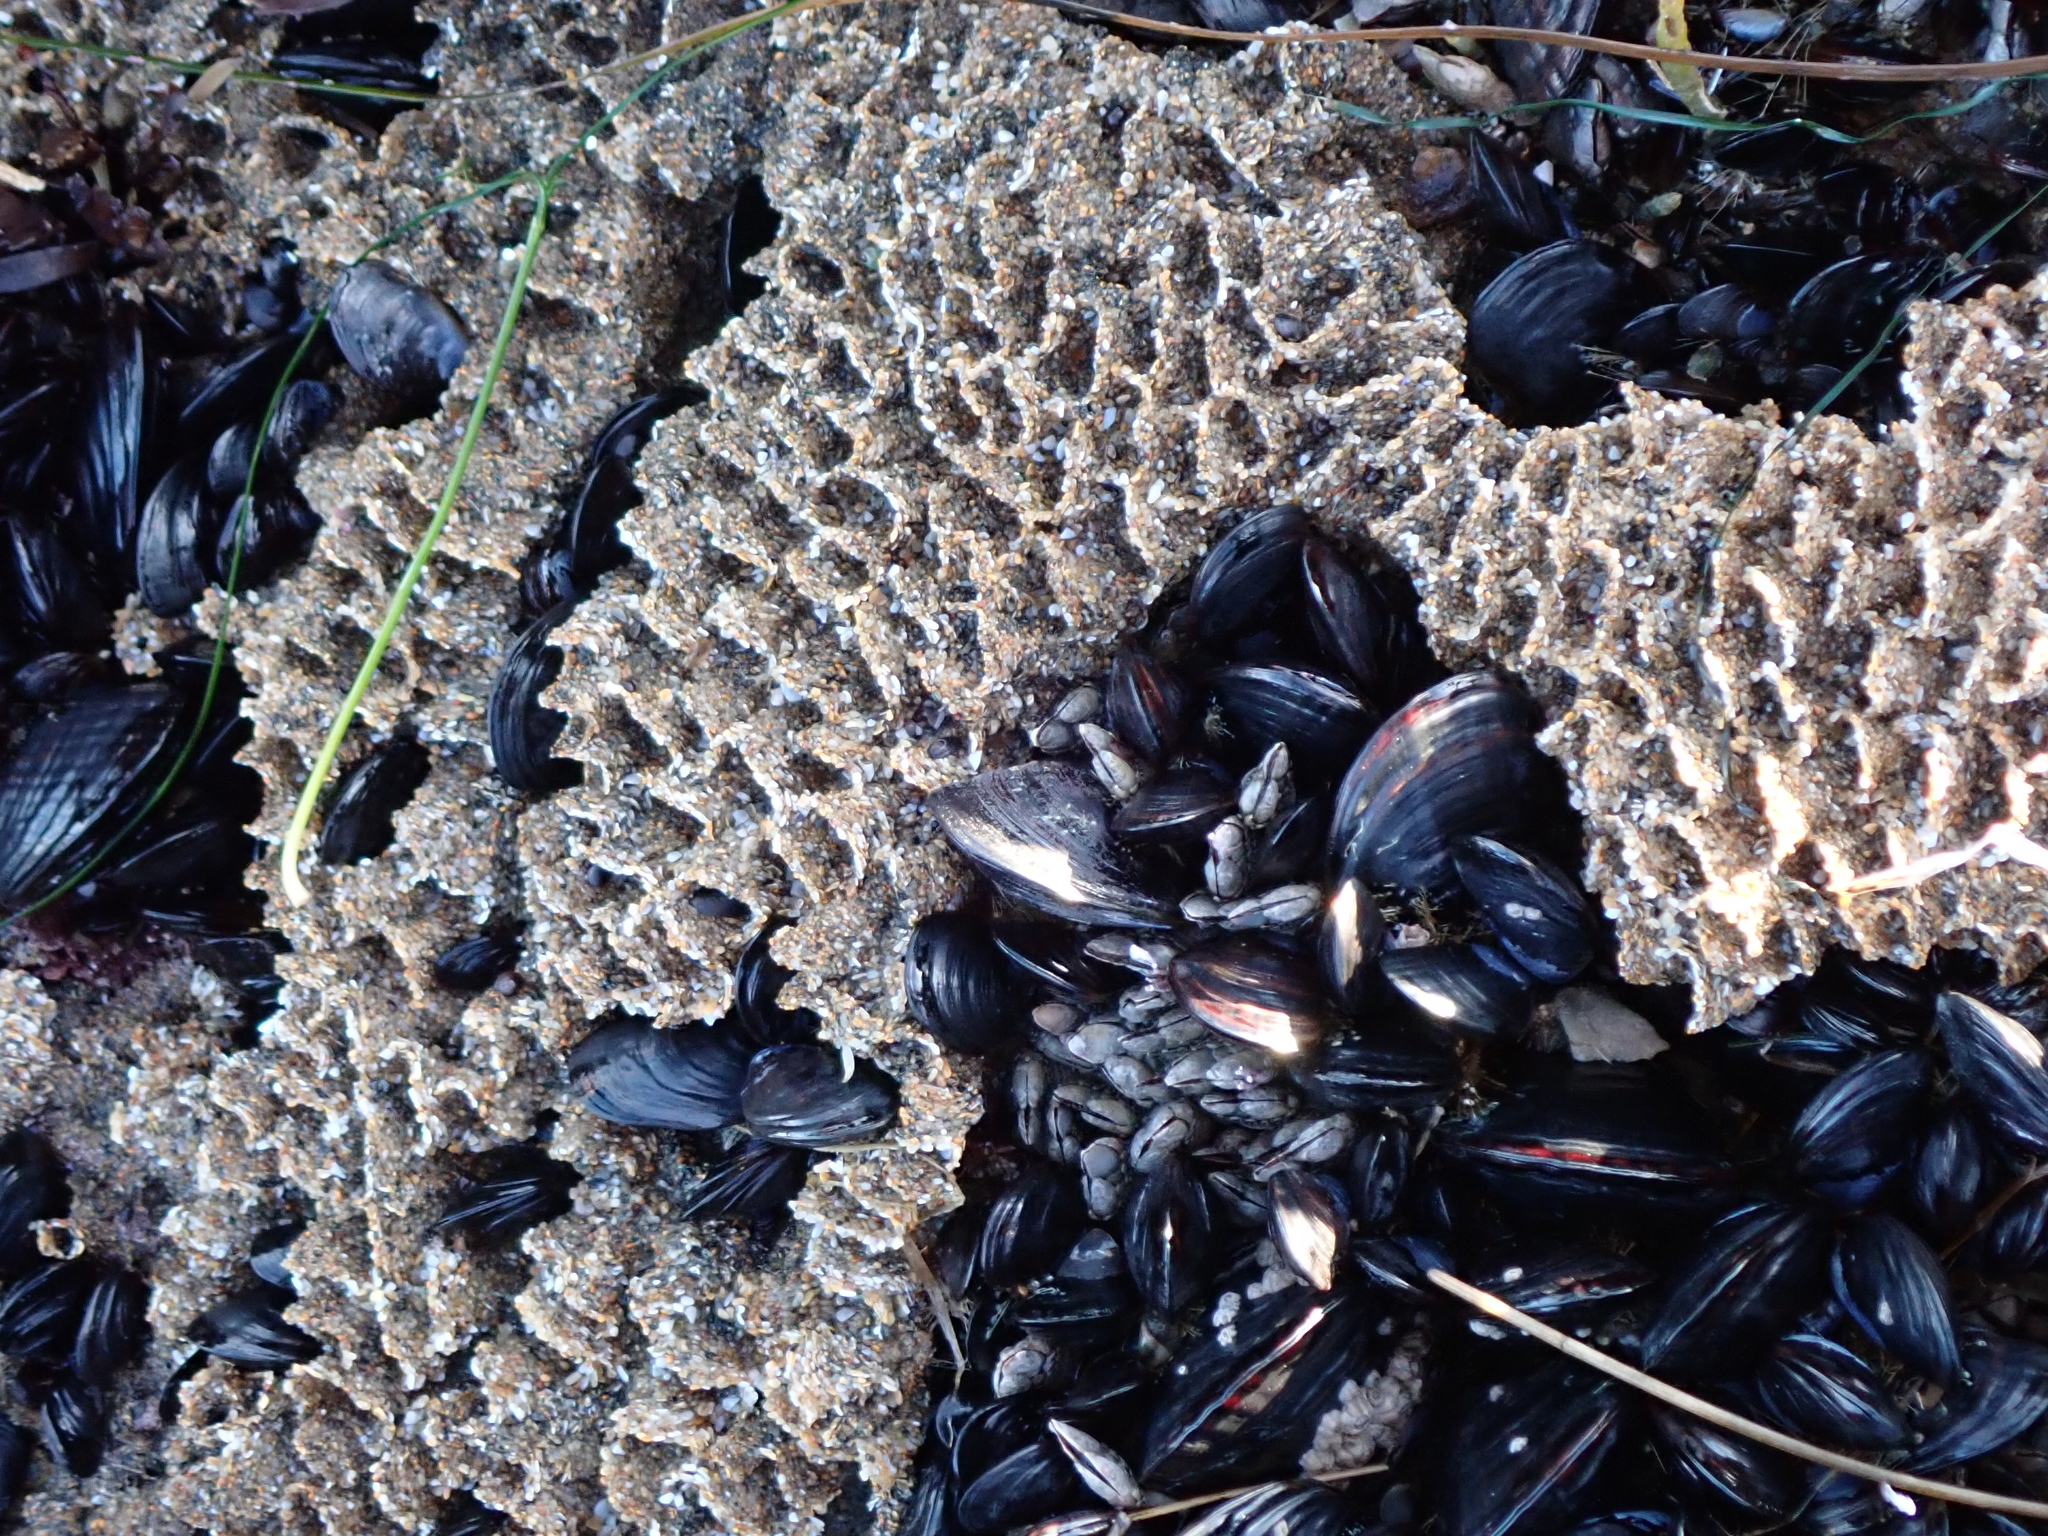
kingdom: Animalia
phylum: Annelida
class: Polychaeta
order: Sabellida
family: Sabellariidae
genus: Phragmatopoma
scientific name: Phragmatopoma californica
